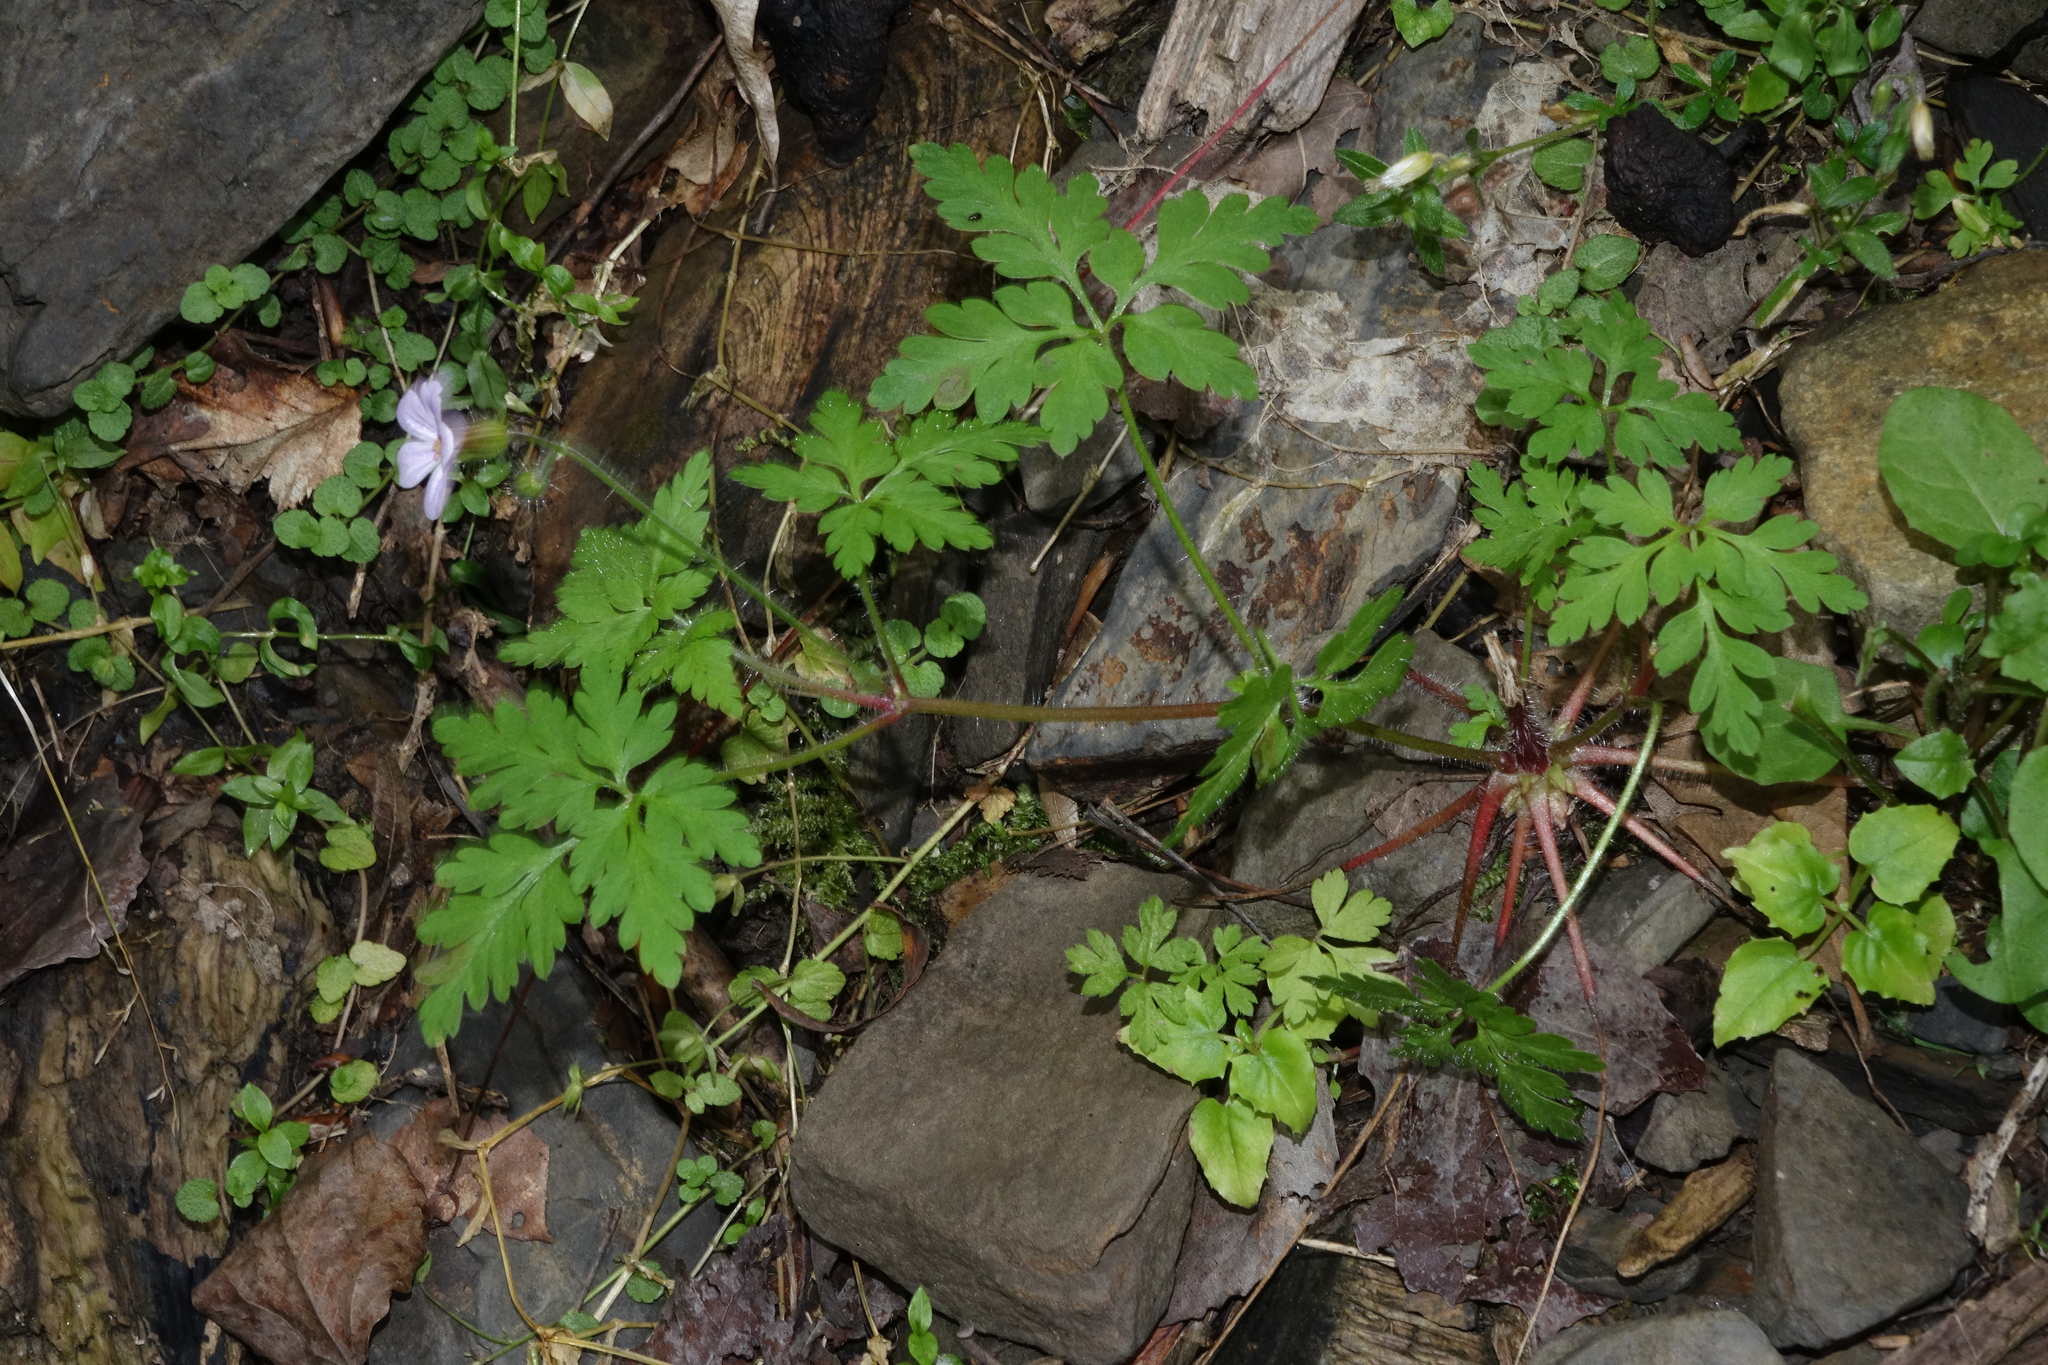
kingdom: Plantae
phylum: Tracheophyta
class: Magnoliopsida
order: Geraniales
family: Geraniaceae
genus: Geranium
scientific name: Geranium robertianum
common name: Herb-robert
